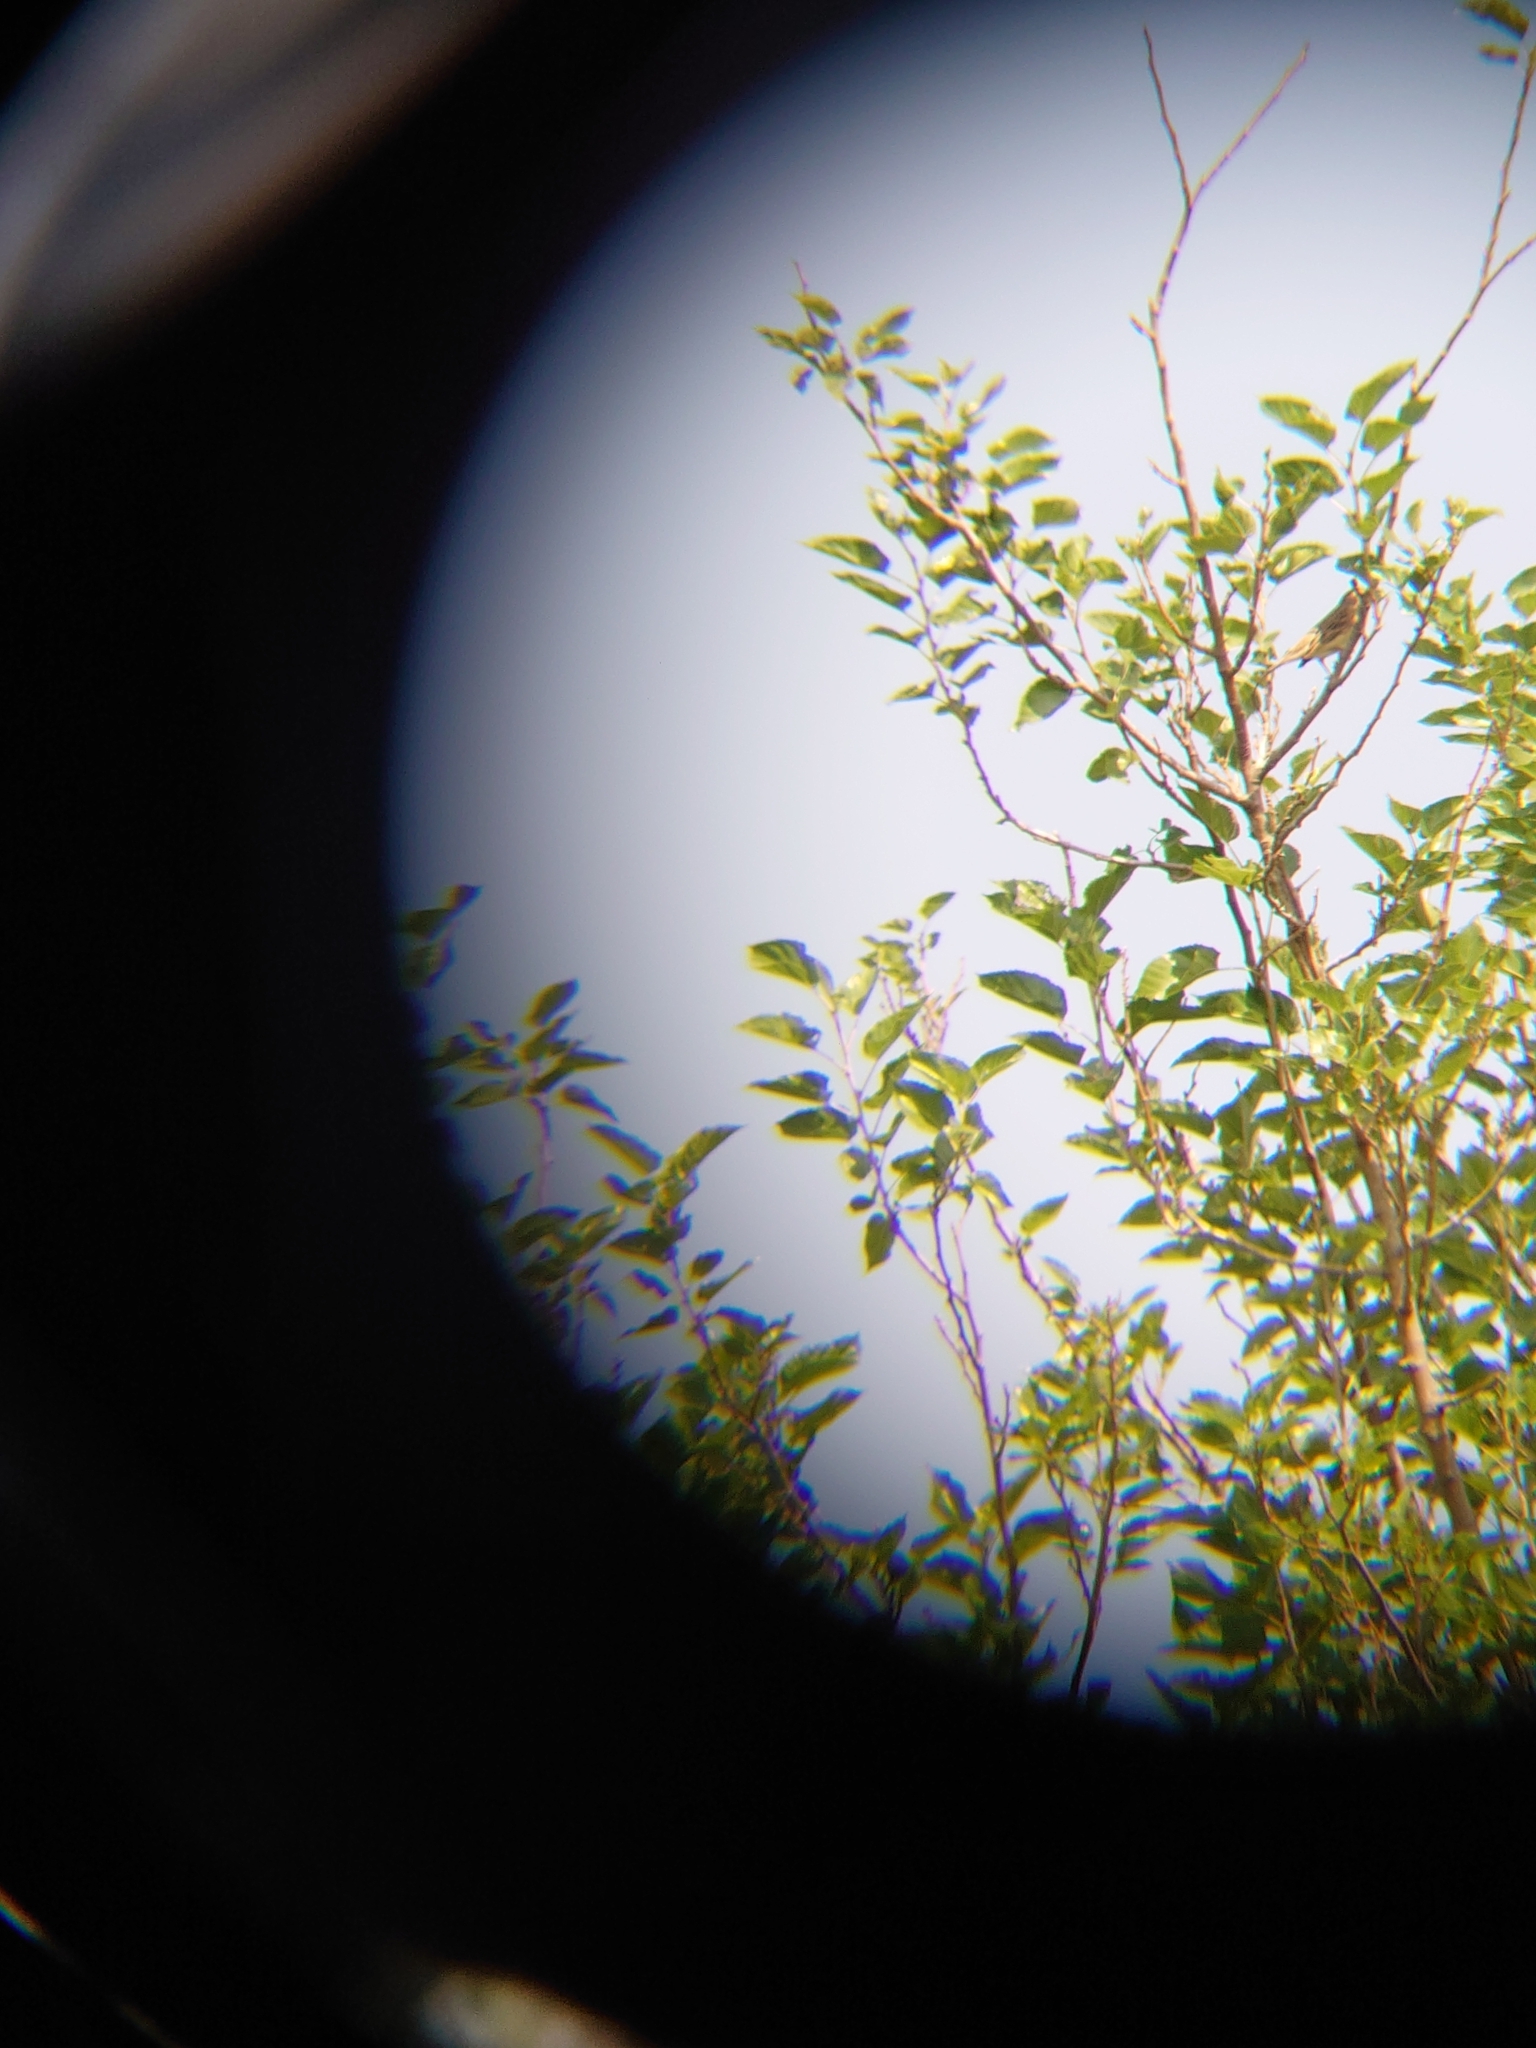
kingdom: Animalia
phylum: Chordata
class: Aves
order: Passeriformes
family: Emberizidae
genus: Emberiza
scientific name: Emberiza aureola
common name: Yellow-breasted bunting
